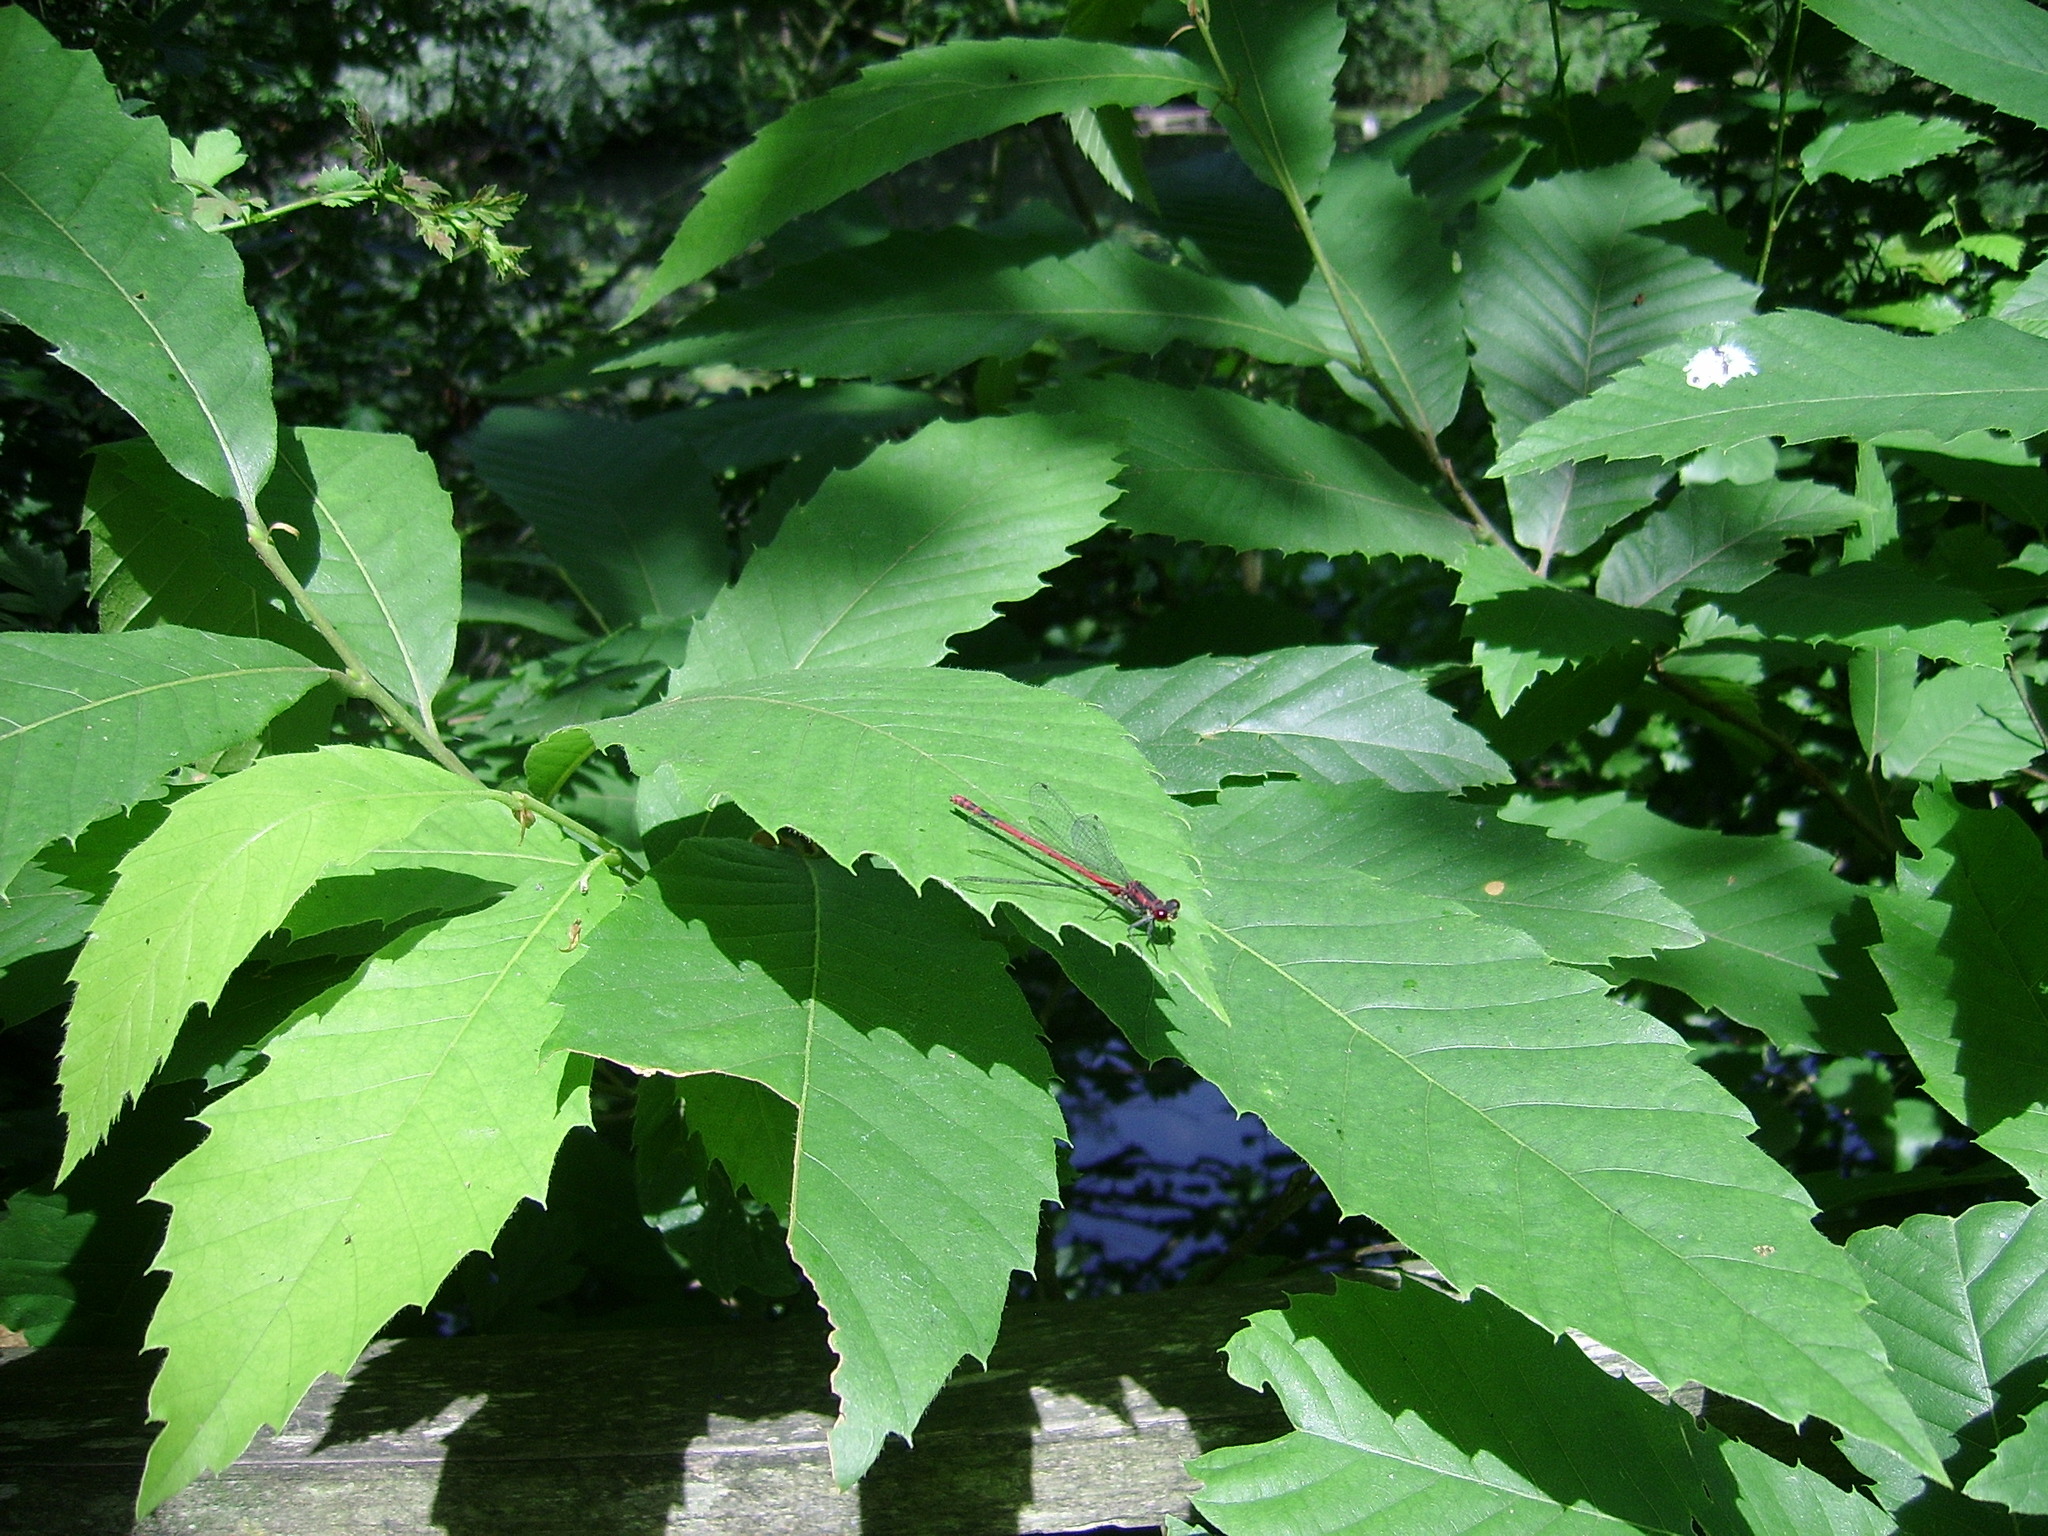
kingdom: Animalia
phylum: Arthropoda
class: Insecta
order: Odonata
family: Coenagrionidae
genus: Pyrrhosoma
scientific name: Pyrrhosoma nymphula
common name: Large red damsel
